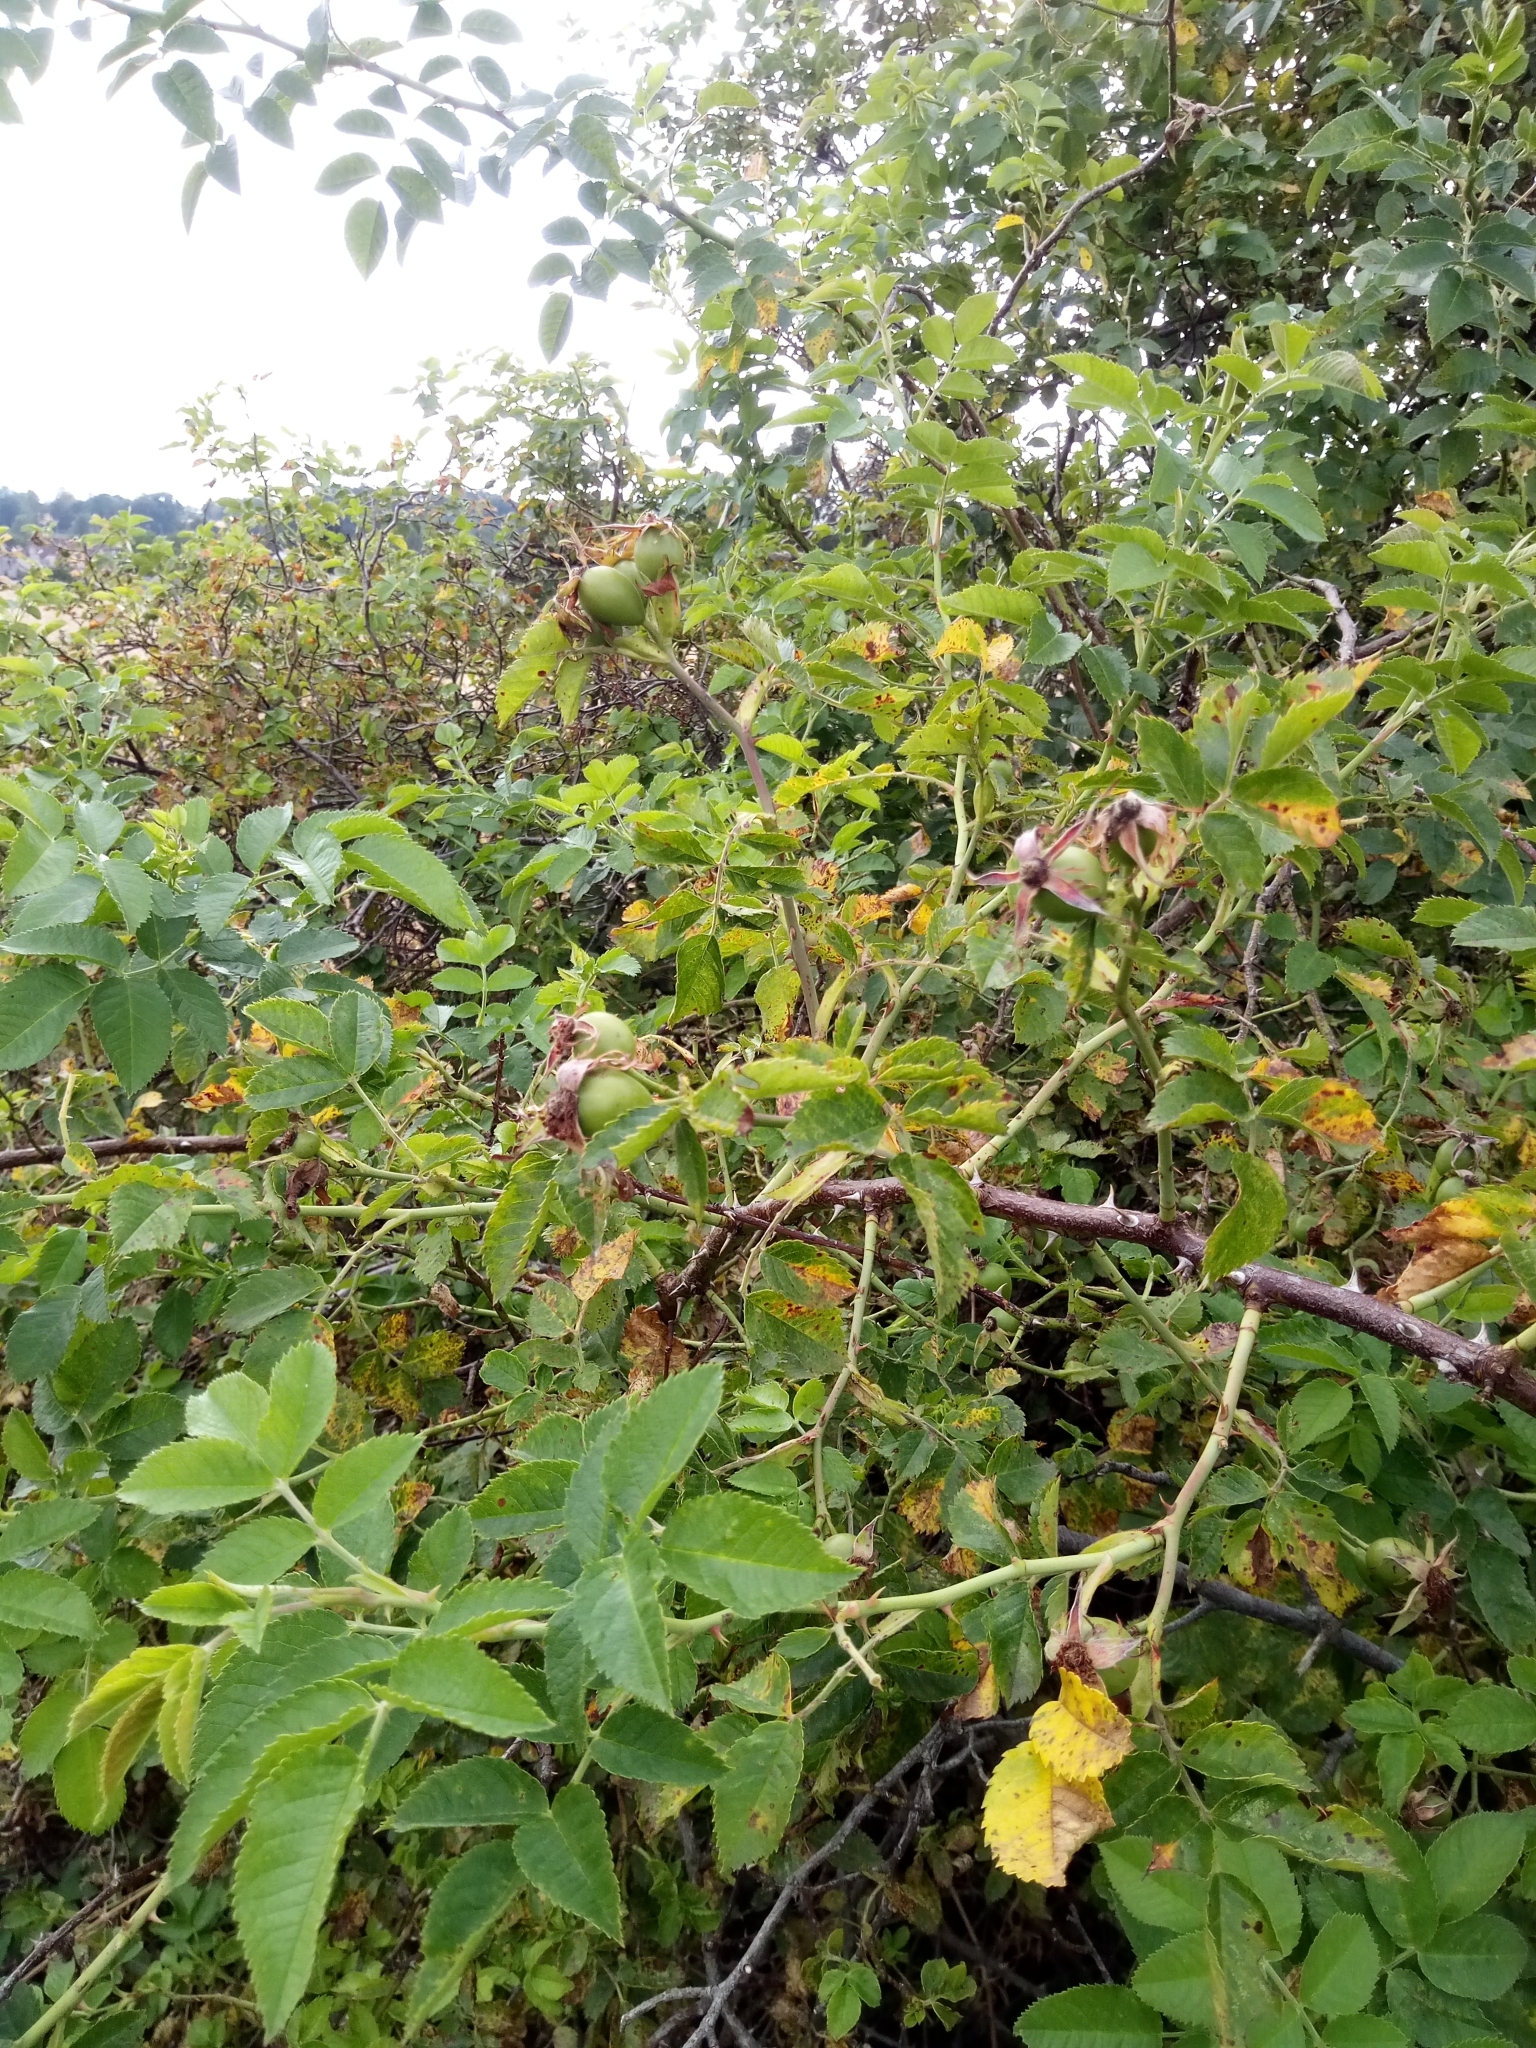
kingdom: Plantae
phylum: Tracheophyta
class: Magnoliopsida
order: Rosales
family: Rosaceae
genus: Rosa
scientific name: Rosa subcollina
